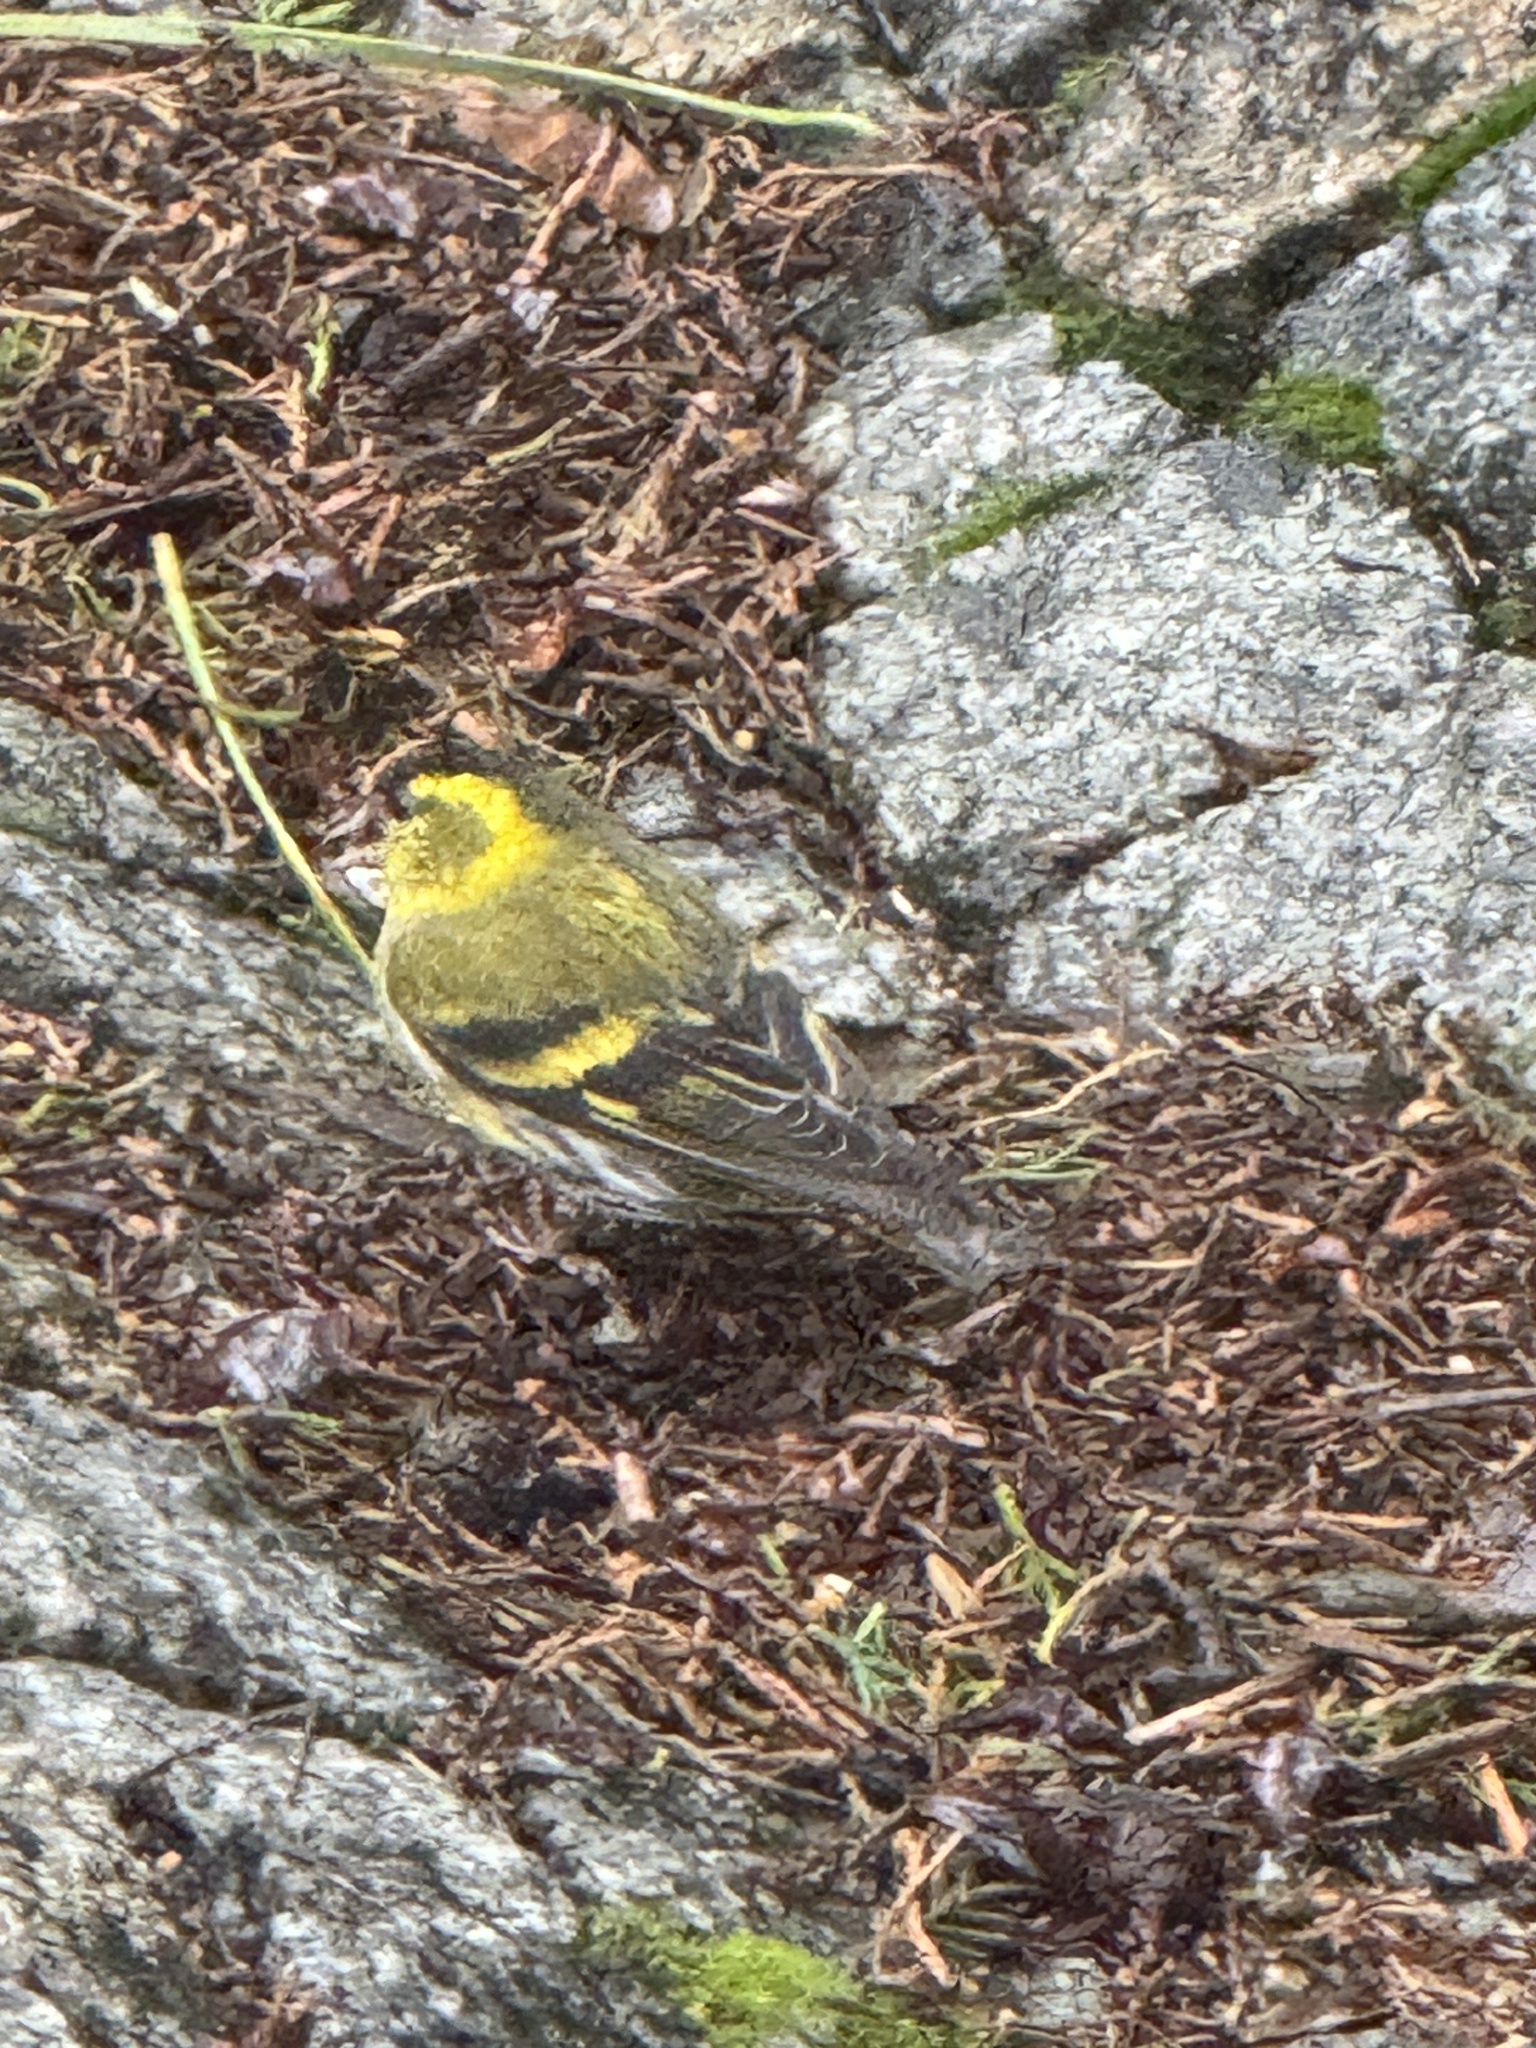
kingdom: Animalia
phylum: Chordata
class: Aves
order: Passeriformes
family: Fringillidae
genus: Spinus
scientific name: Spinus spinus
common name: Eurasian siskin
